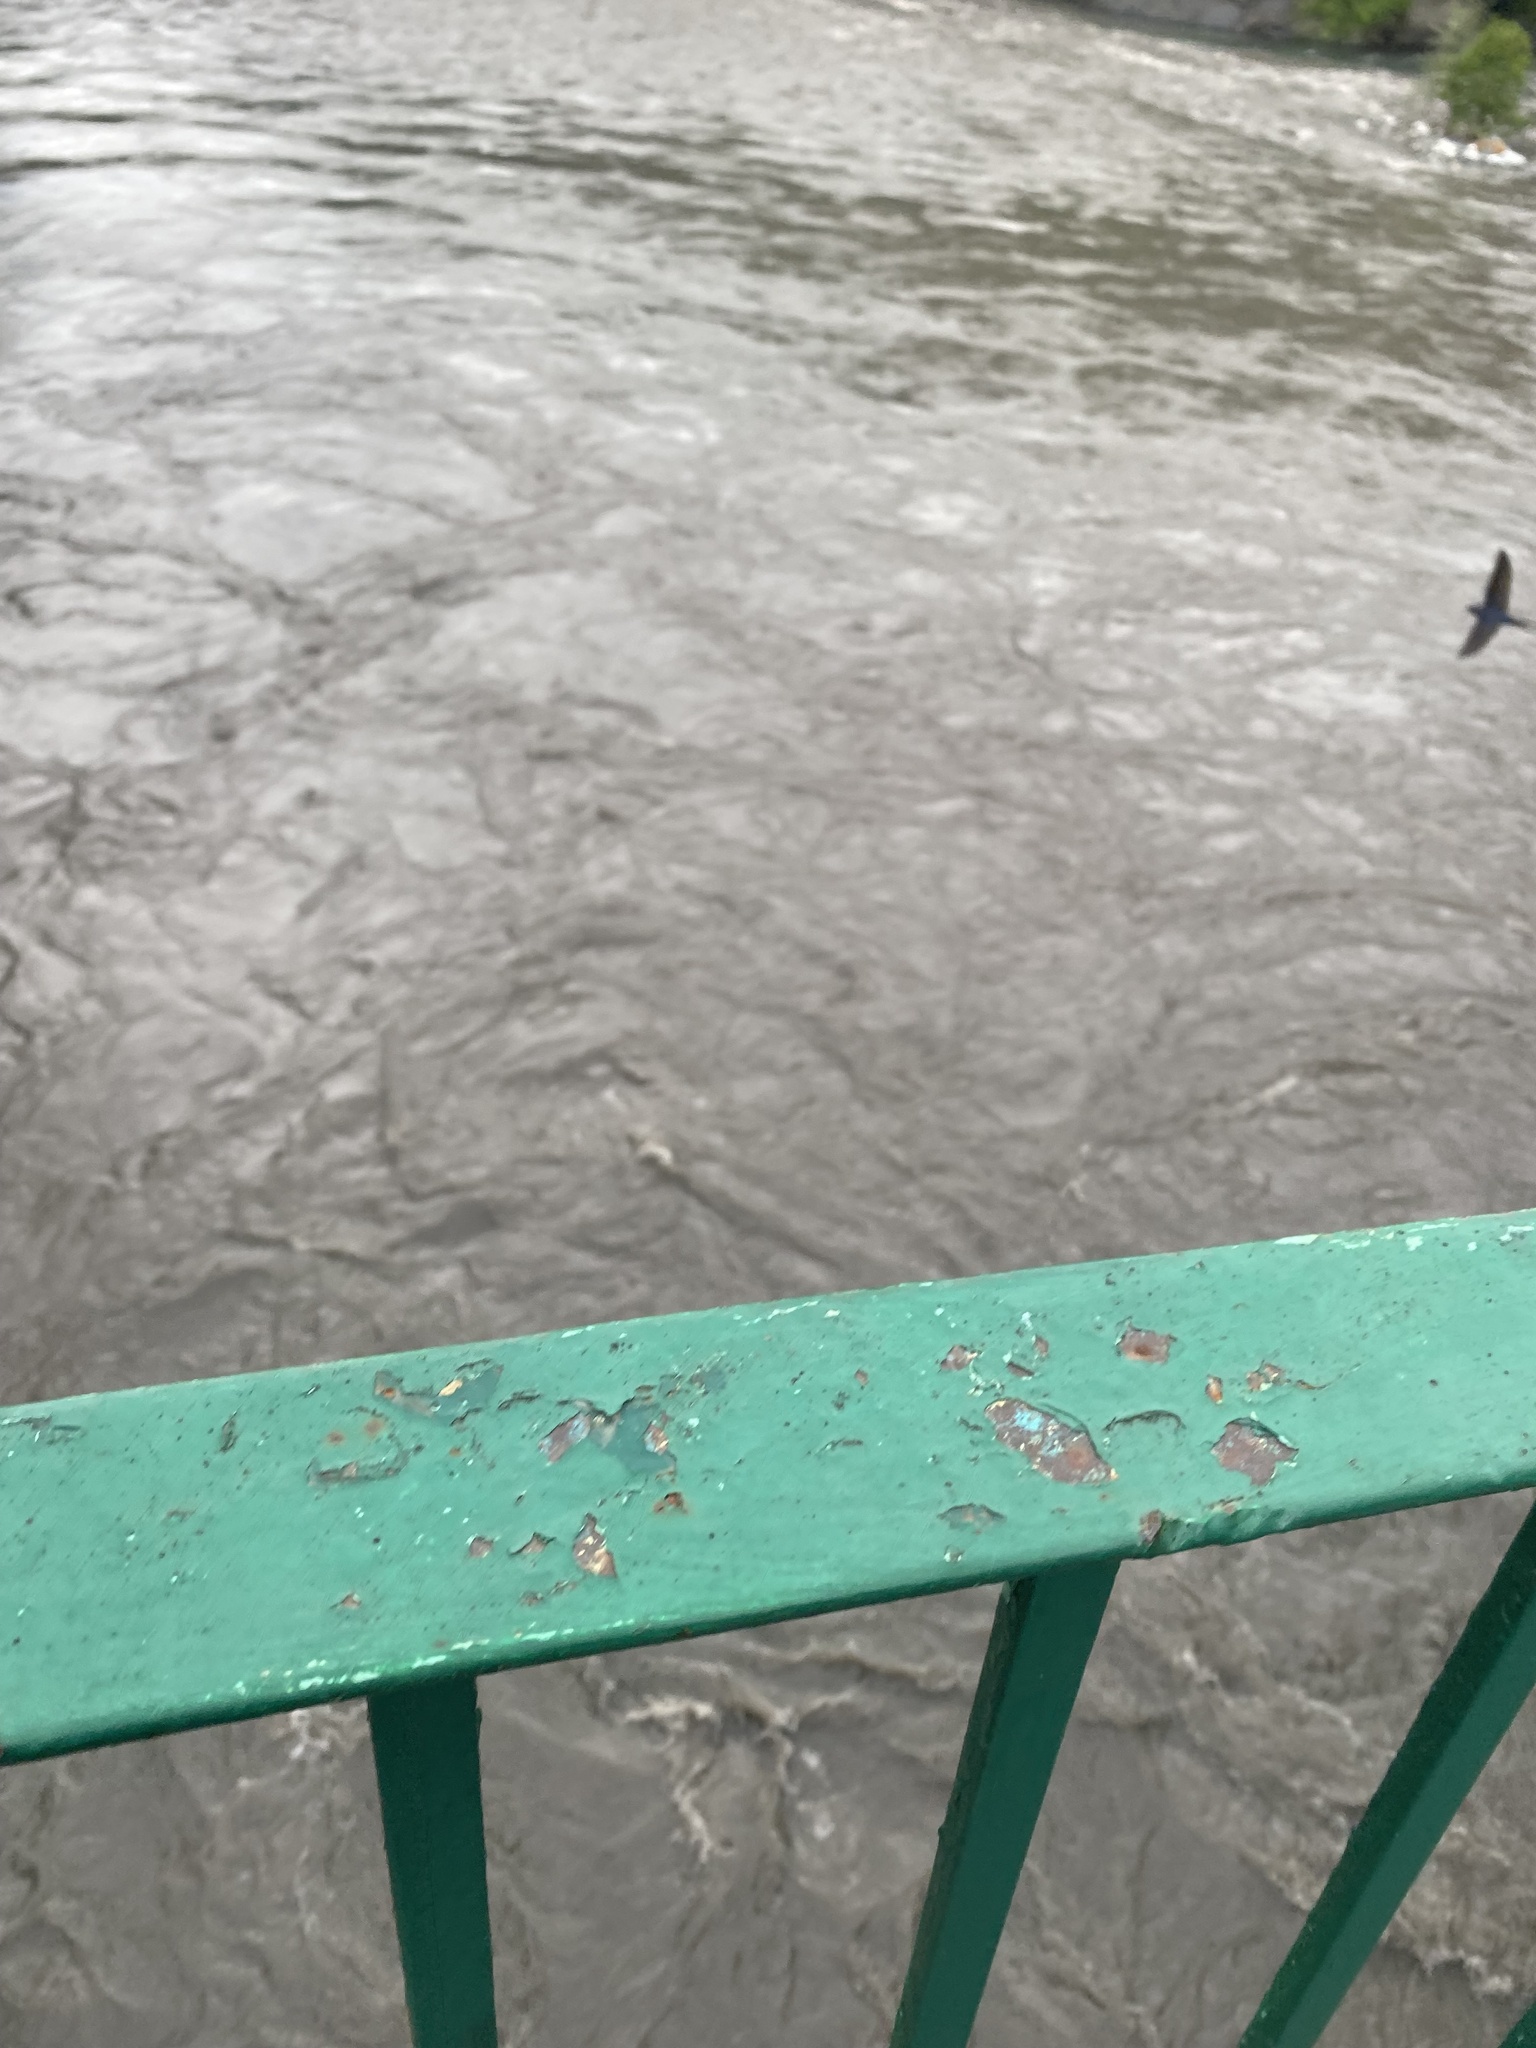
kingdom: Animalia
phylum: Chordata
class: Aves
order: Passeriformes
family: Hirundinidae
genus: Hirundo
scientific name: Hirundo rustica
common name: Barn swallow
